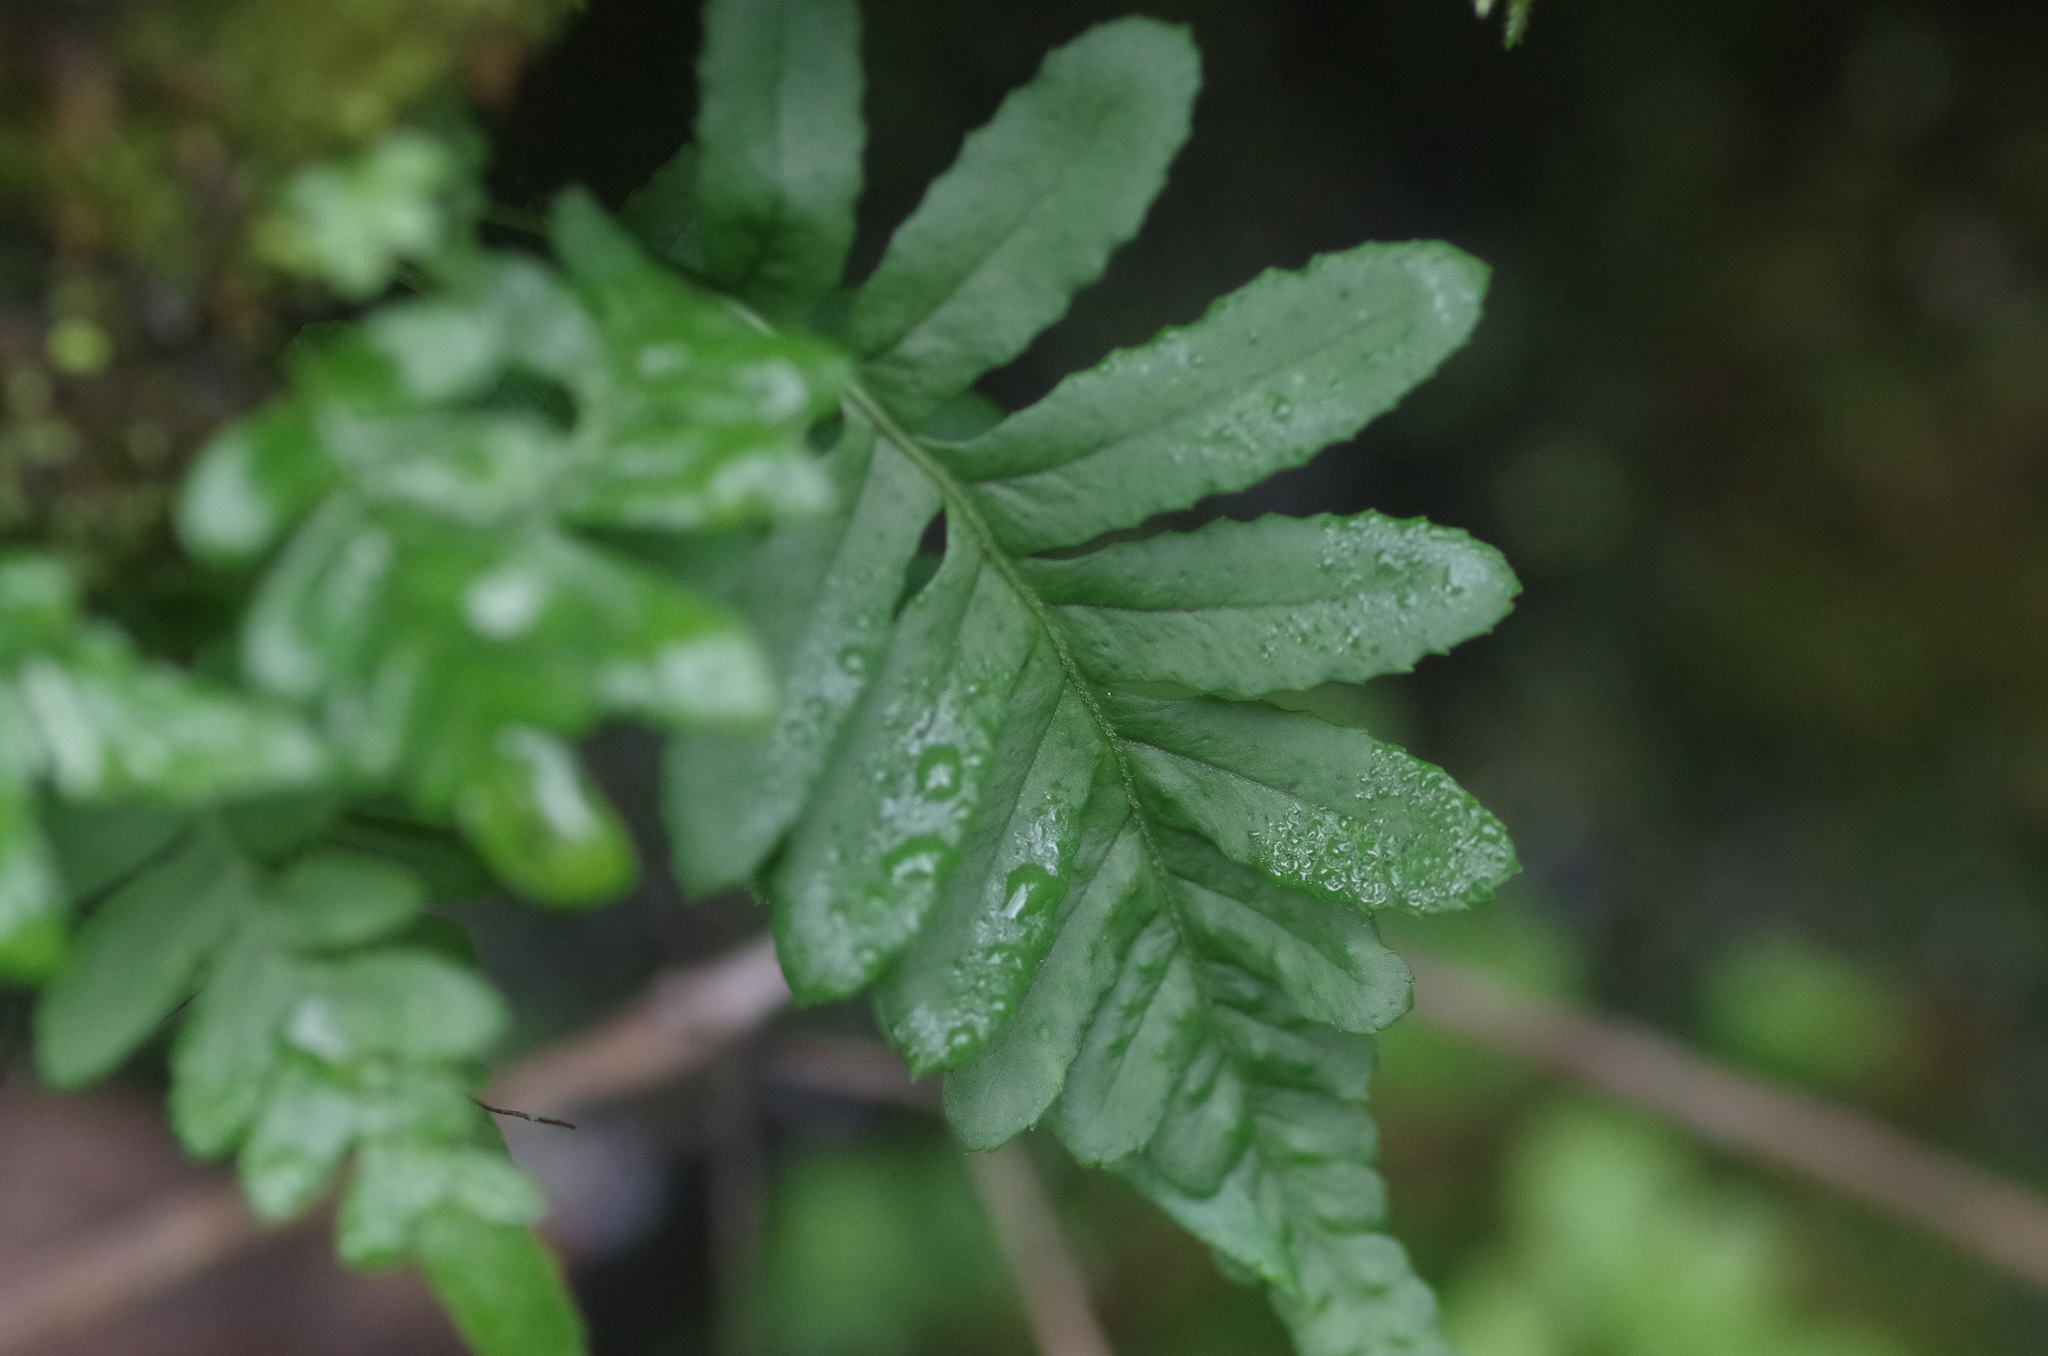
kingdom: Plantae
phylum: Tracheophyta
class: Polypodiopsida
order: Polypodiales
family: Polypodiaceae
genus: Polypodium
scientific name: Polypodium glycyrrhiza
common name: Licorice fern
